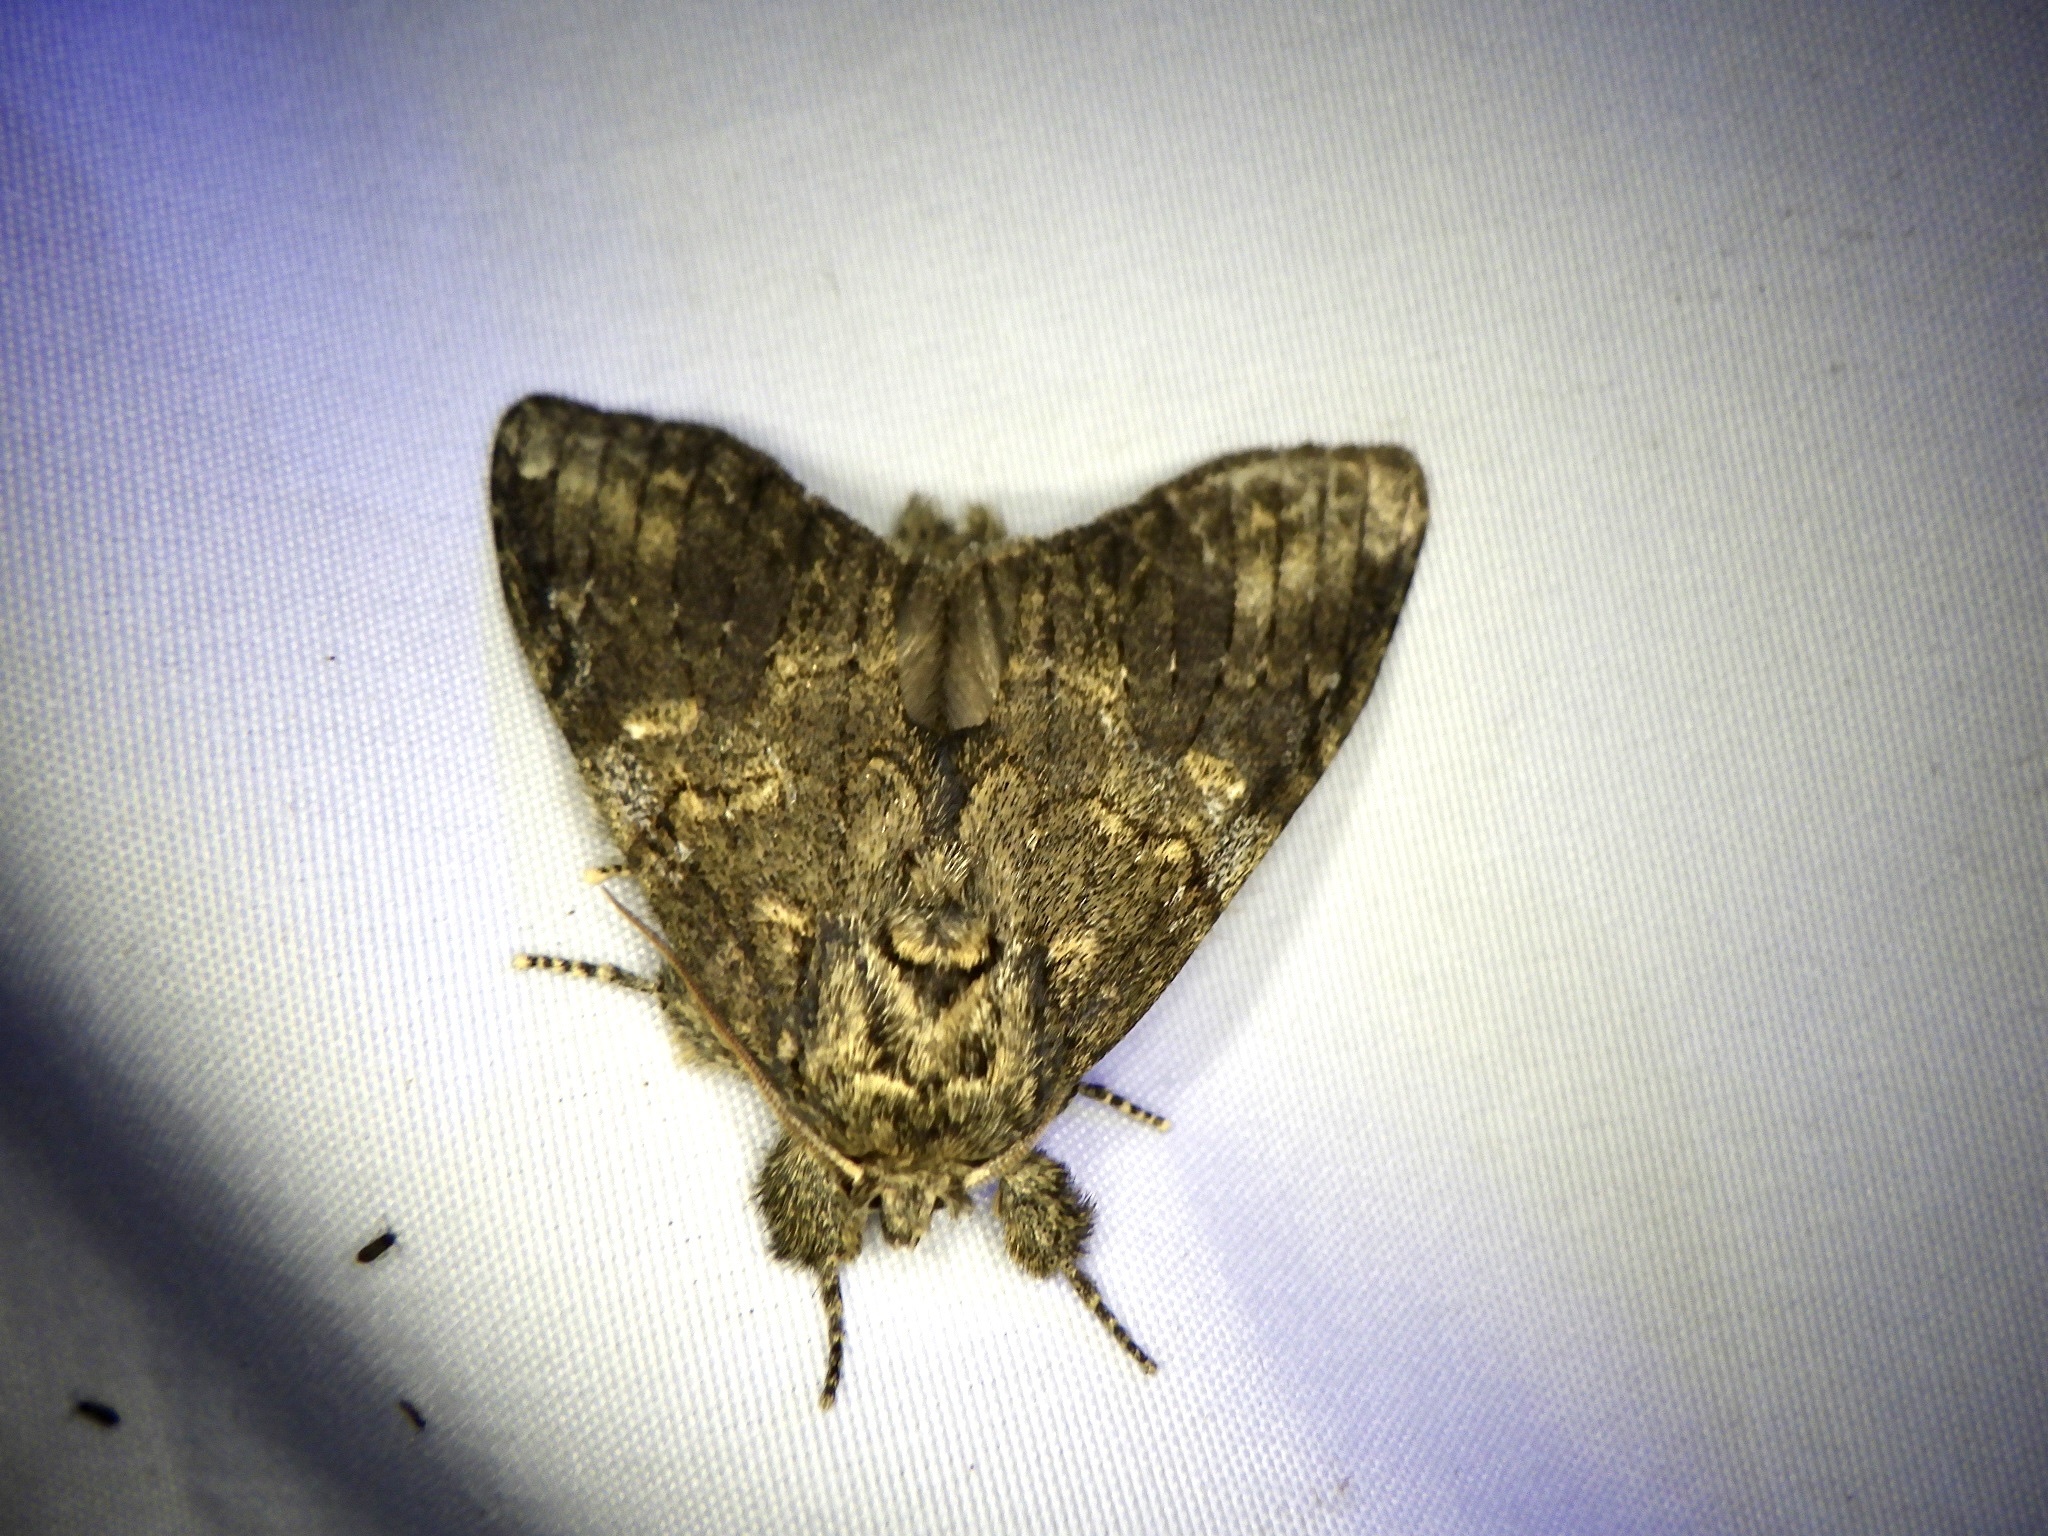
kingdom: Animalia
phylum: Arthropoda
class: Insecta
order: Lepidoptera
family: Notodontidae
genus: Peridea
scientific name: Peridea gigantea
